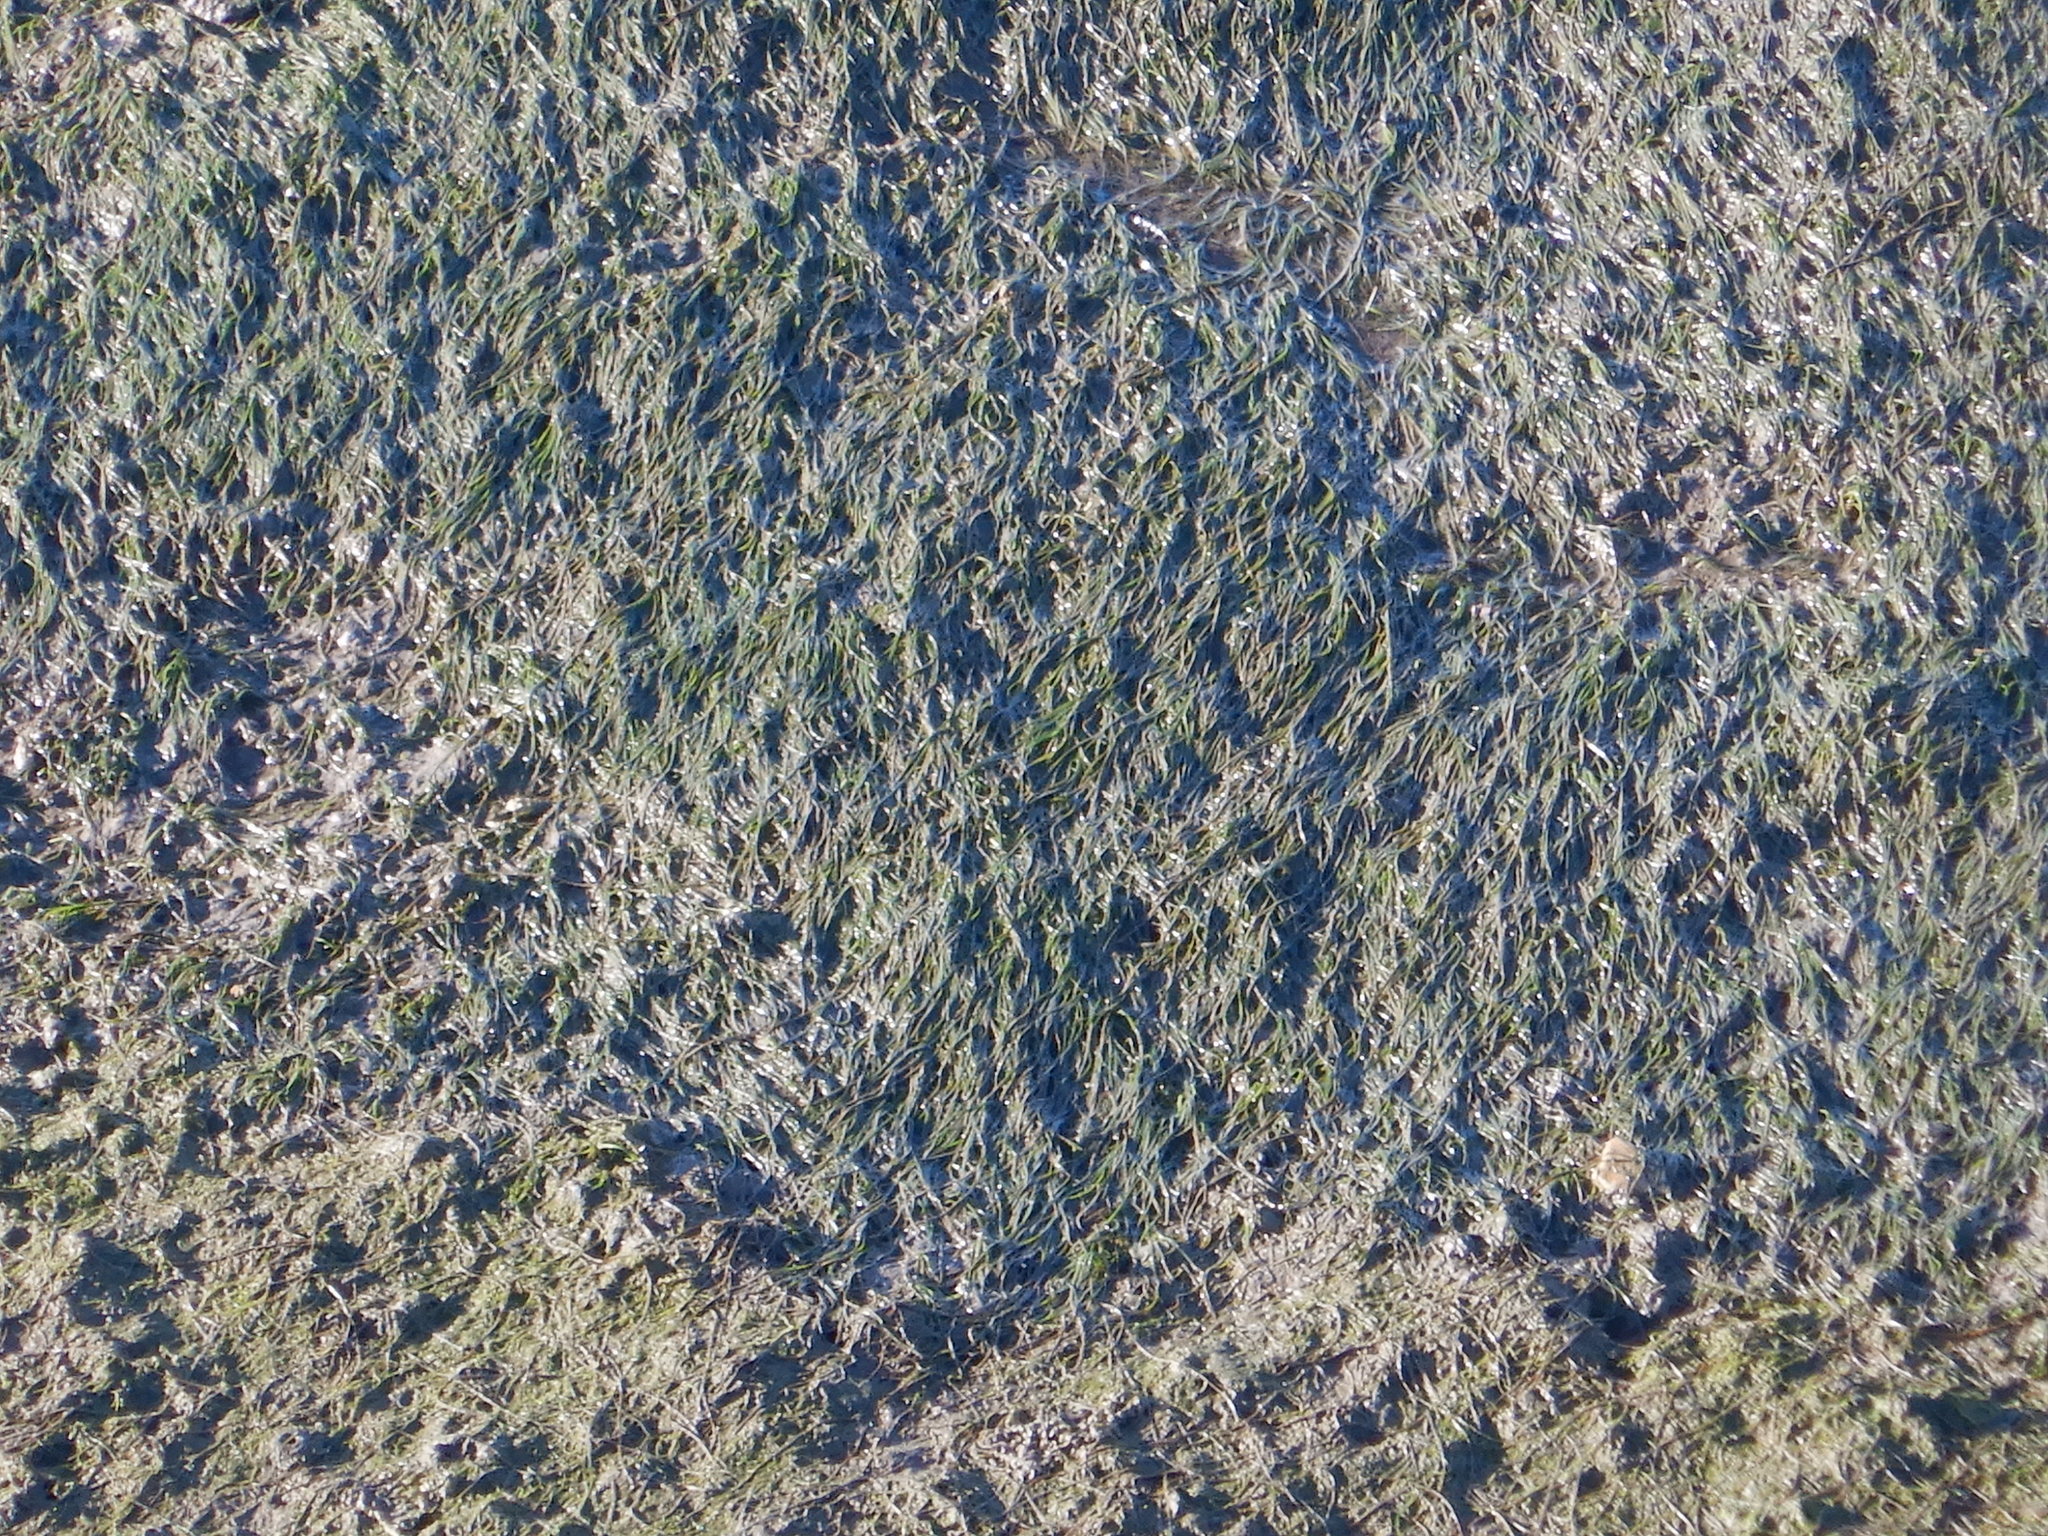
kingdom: Plantae
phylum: Tracheophyta
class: Liliopsida
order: Alismatales
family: Zosteraceae
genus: Zostera
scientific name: Zostera noltii
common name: Dwarf eelgrass
